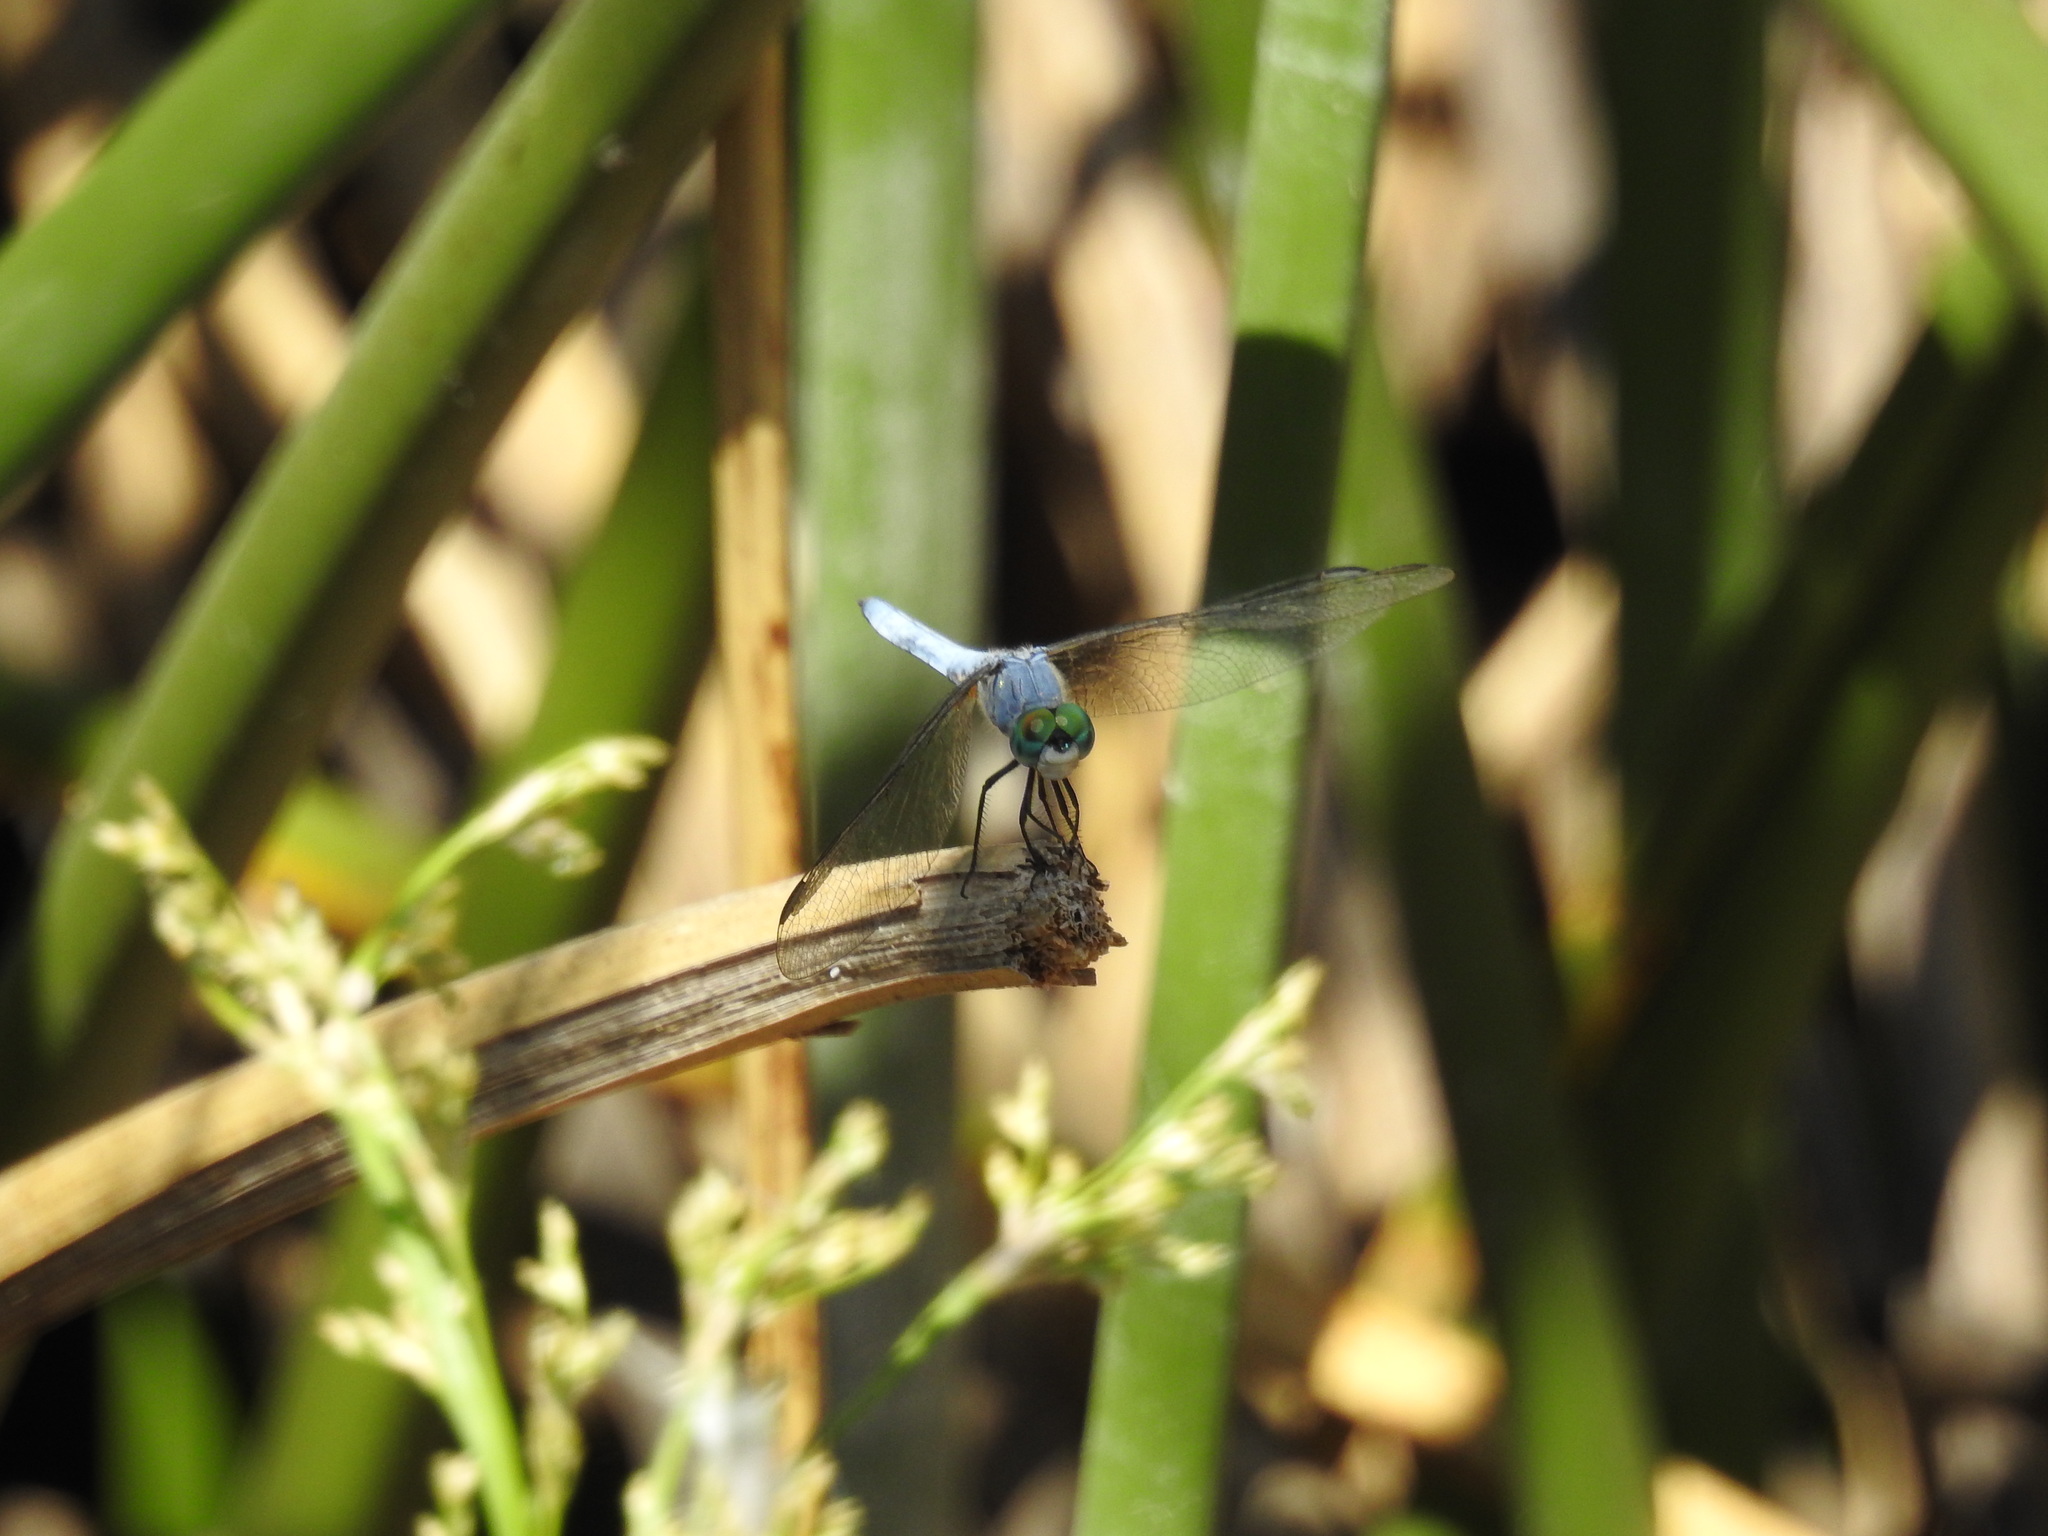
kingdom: Animalia
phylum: Arthropoda
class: Insecta
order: Odonata
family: Libellulidae
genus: Pachydiplax
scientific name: Pachydiplax longipennis
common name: Blue dasher
